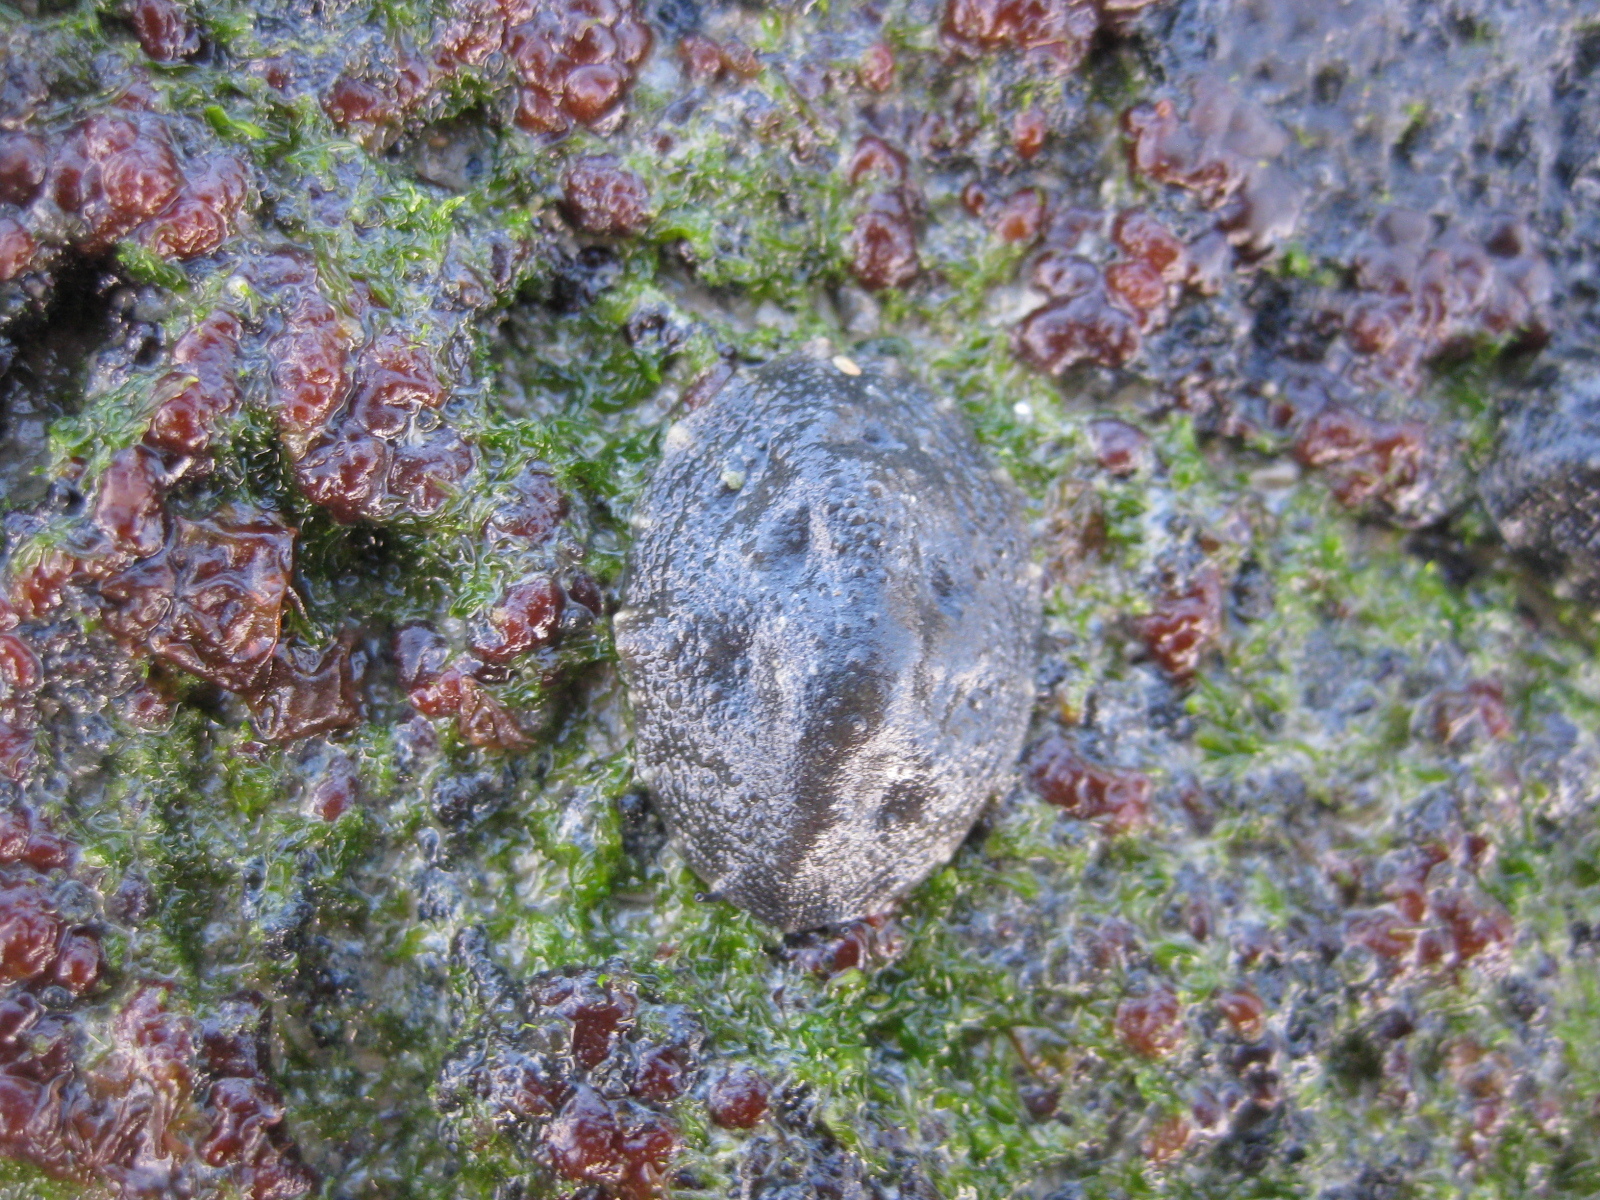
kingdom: Animalia
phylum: Mollusca
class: Gastropoda
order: Systellommatophora
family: Onchidiidae
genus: Onchidella
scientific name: Onchidella nigricans
